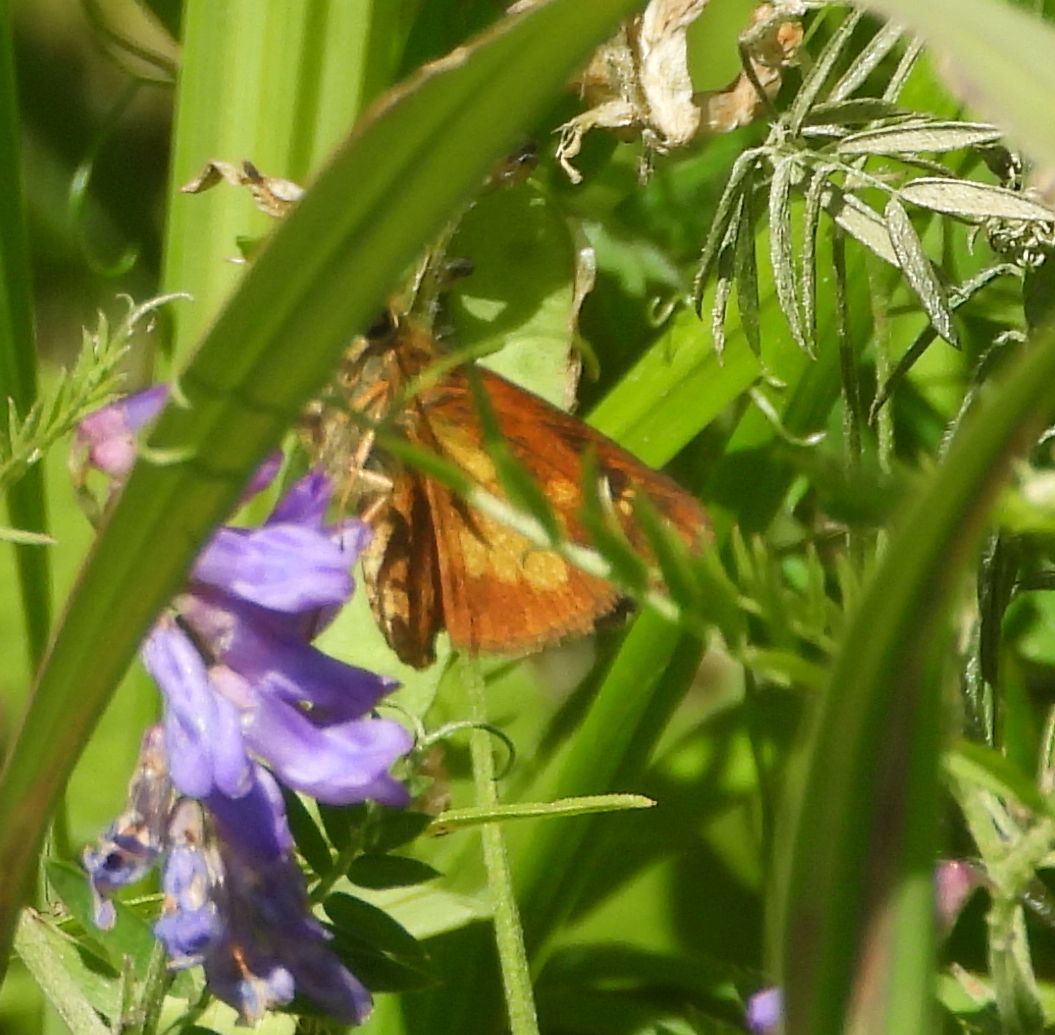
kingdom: Animalia
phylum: Arthropoda
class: Insecta
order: Lepidoptera
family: Hesperiidae
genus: Poanes
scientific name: Poanes massasoit
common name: Mulberrywing
